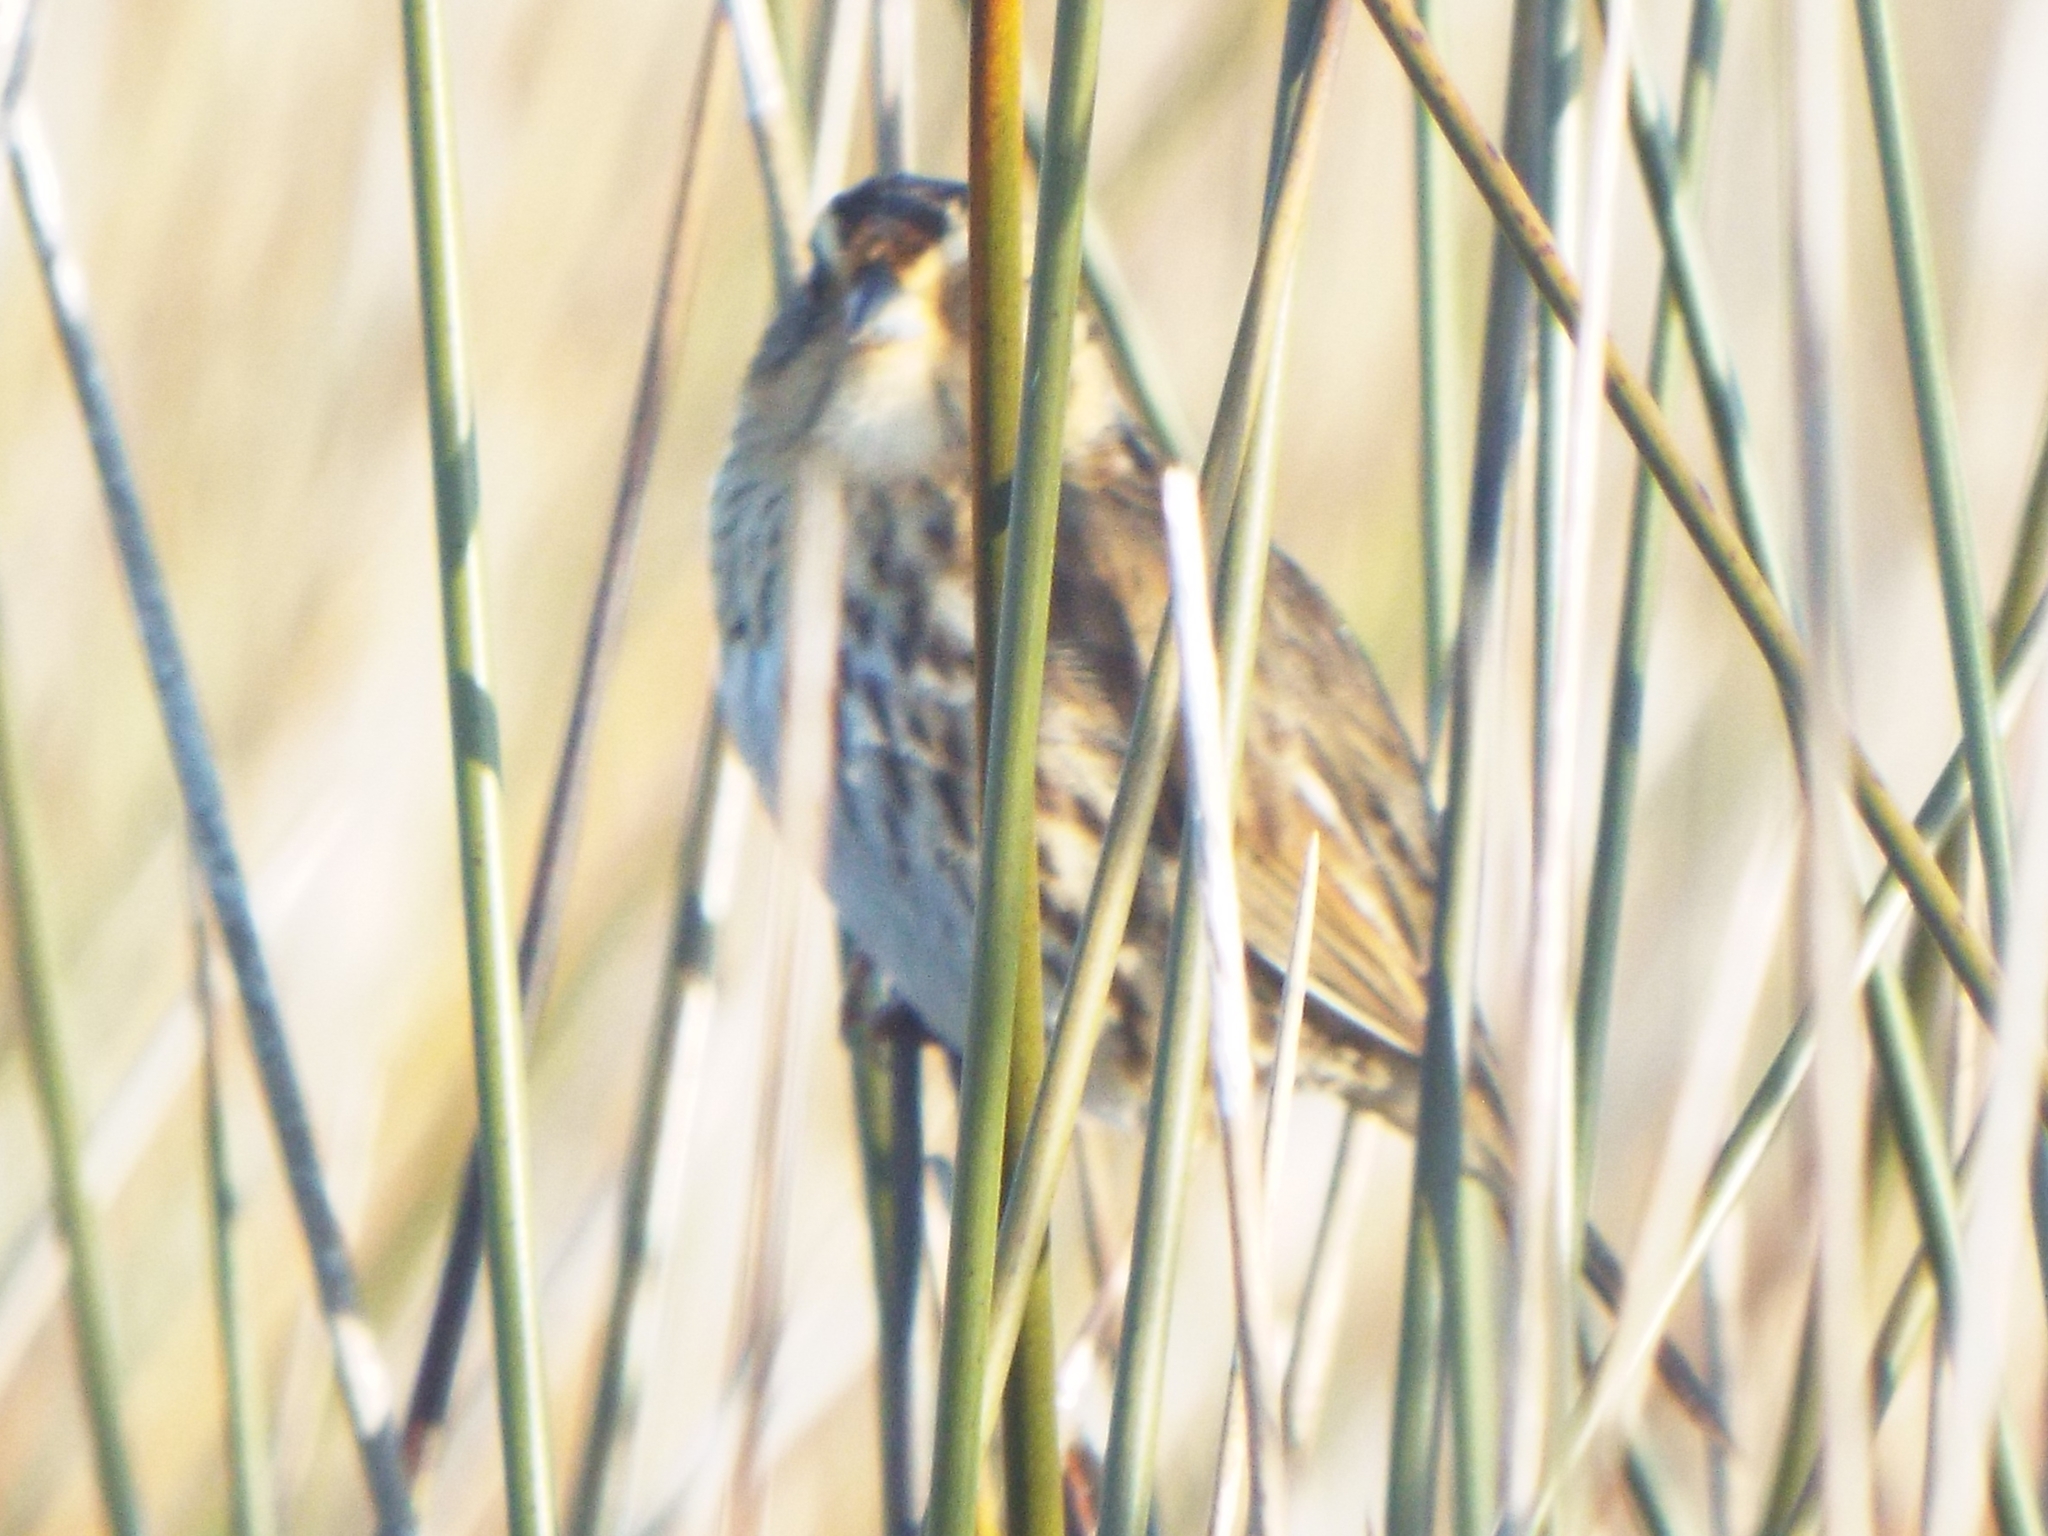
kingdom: Animalia
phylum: Chordata
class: Aves
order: Passeriformes
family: Passerellidae
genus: Ammospiza
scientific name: Ammospiza caudacuta
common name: Saltmarsh sparrow
